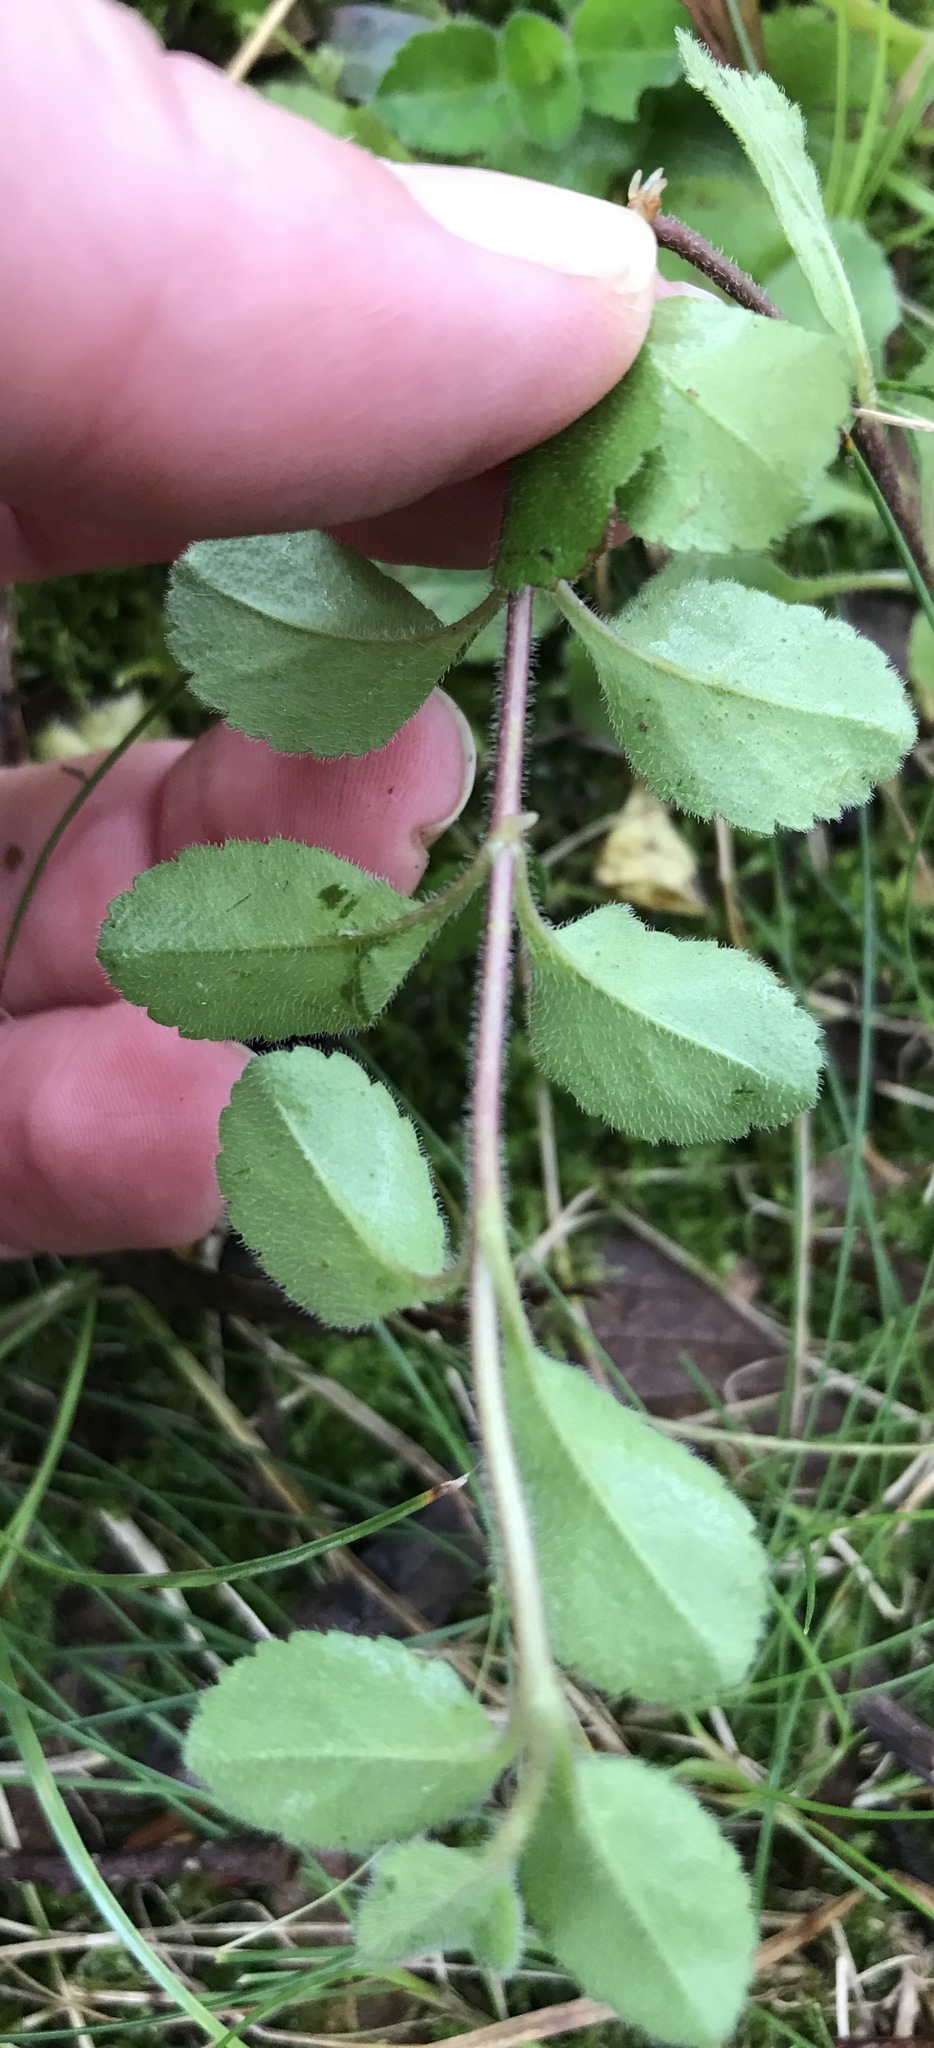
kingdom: Plantae
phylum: Tracheophyta
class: Magnoliopsida
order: Lamiales
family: Plantaginaceae
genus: Veronica
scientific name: Veronica officinalis
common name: Common speedwell
